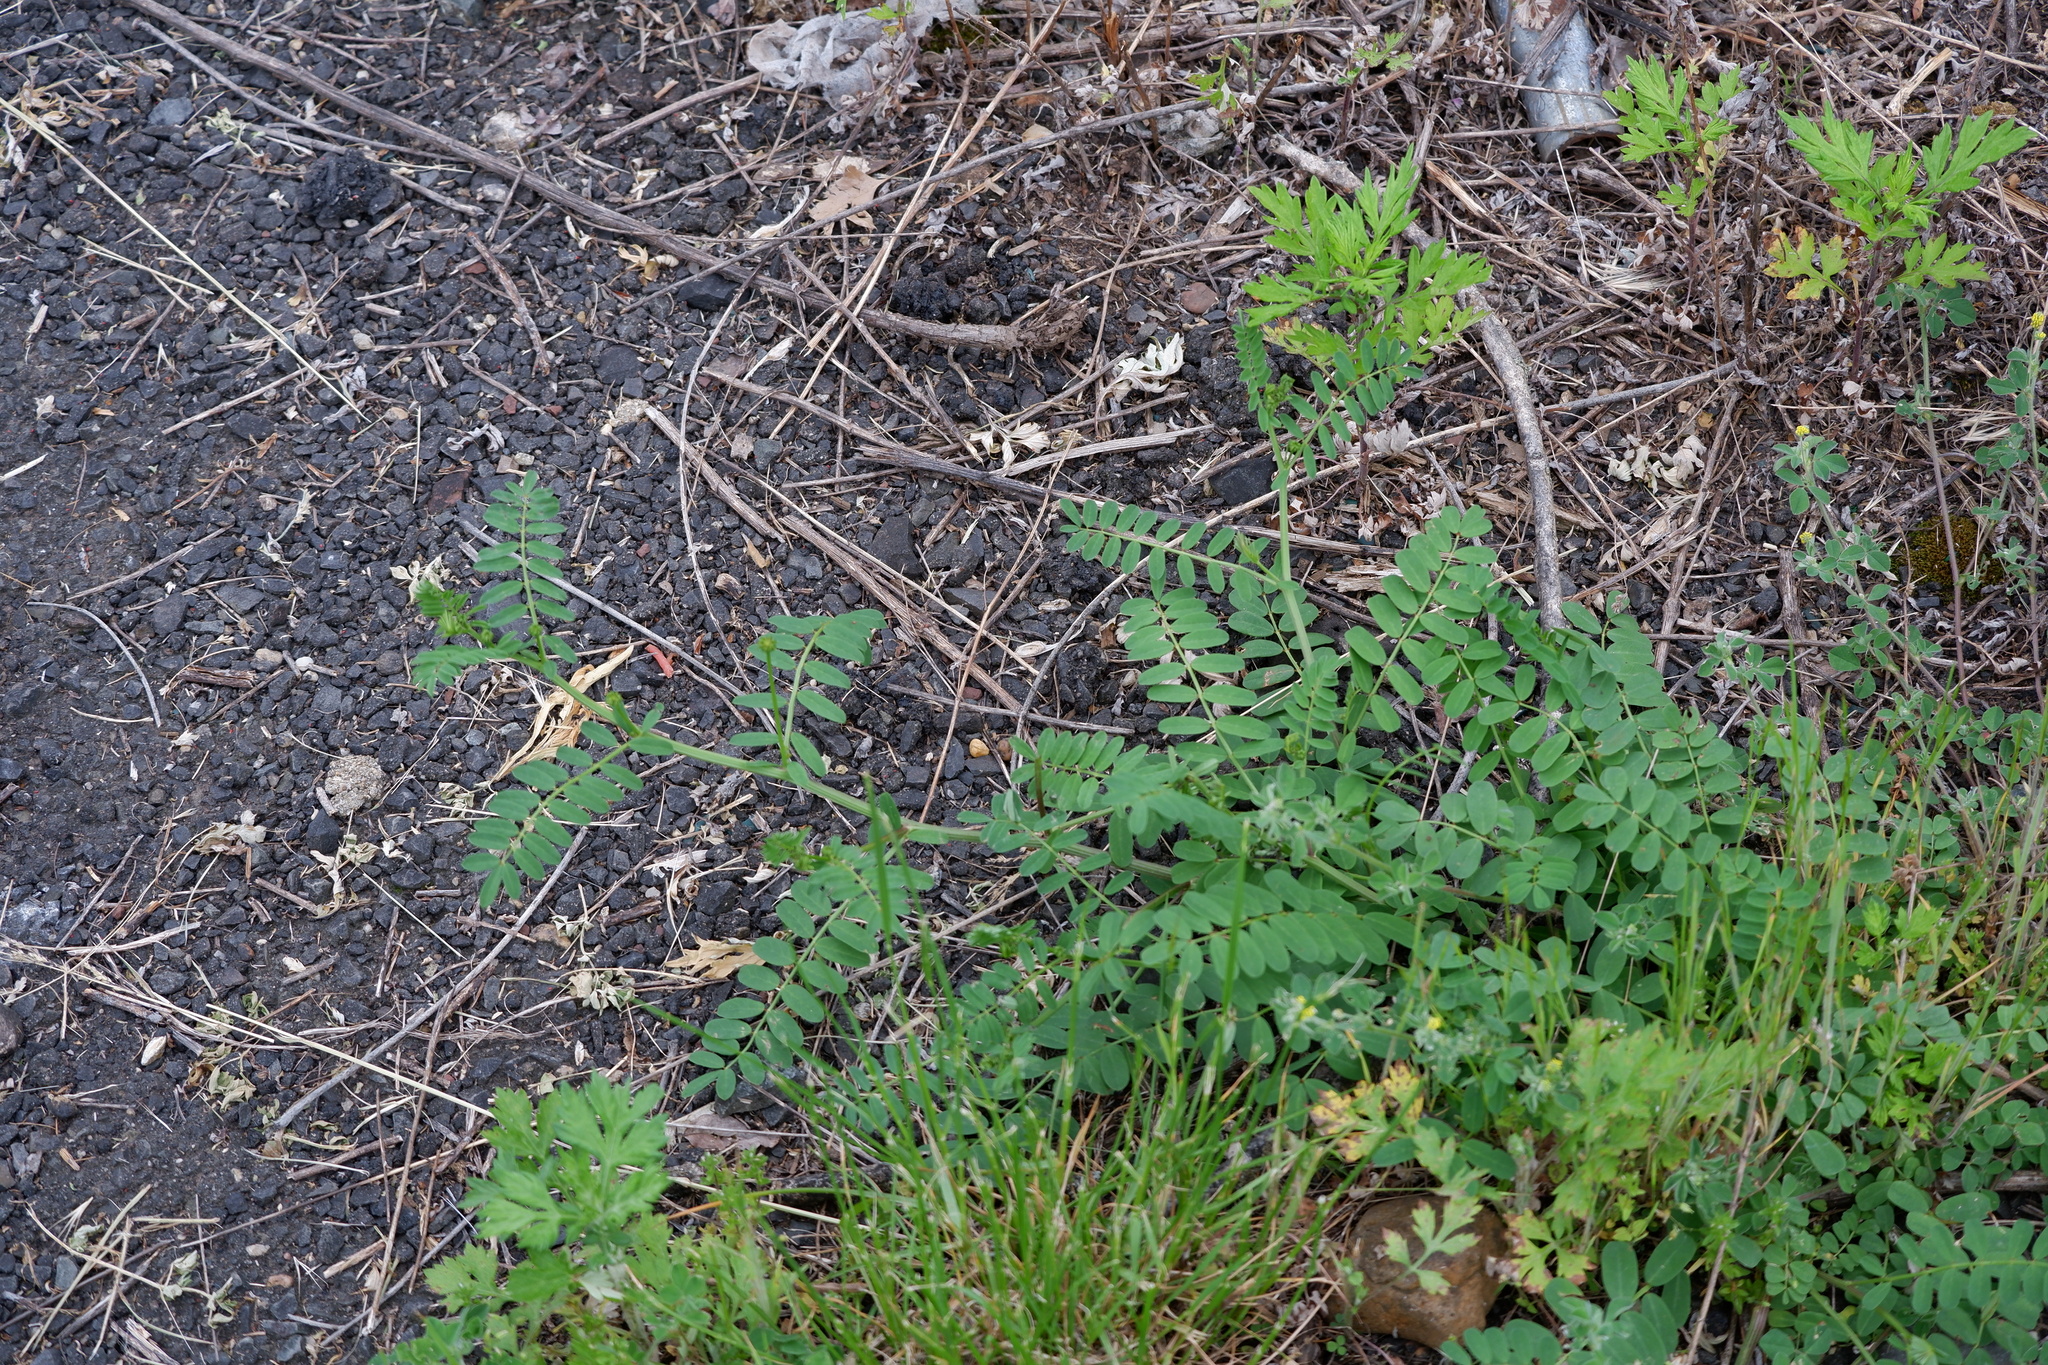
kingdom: Plantae
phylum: Tracheophyta
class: Magnoliopsida
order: Fabales
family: Fabaceae
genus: Coronilla
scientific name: Coronilla varia
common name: Crownvetch
